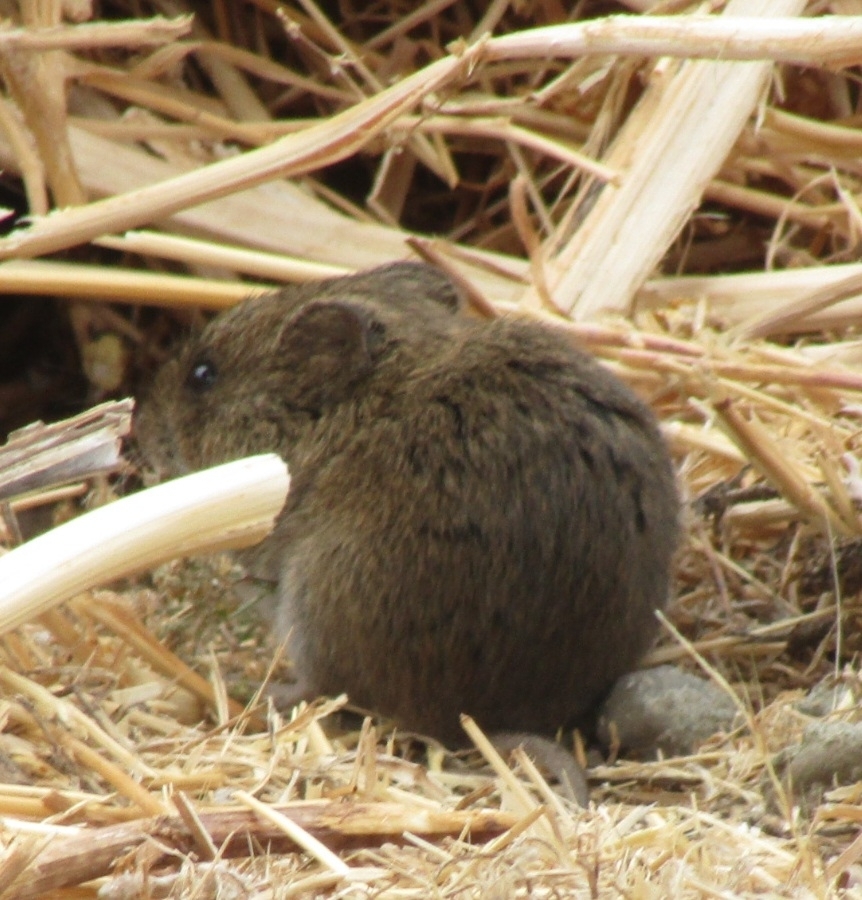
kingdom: Animalia
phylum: Chordata
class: Mammalia
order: Rodentia
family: Cricetidae
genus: Reithrodontomys
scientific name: Reithrodontomys megalotis
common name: Western harvest mouse
